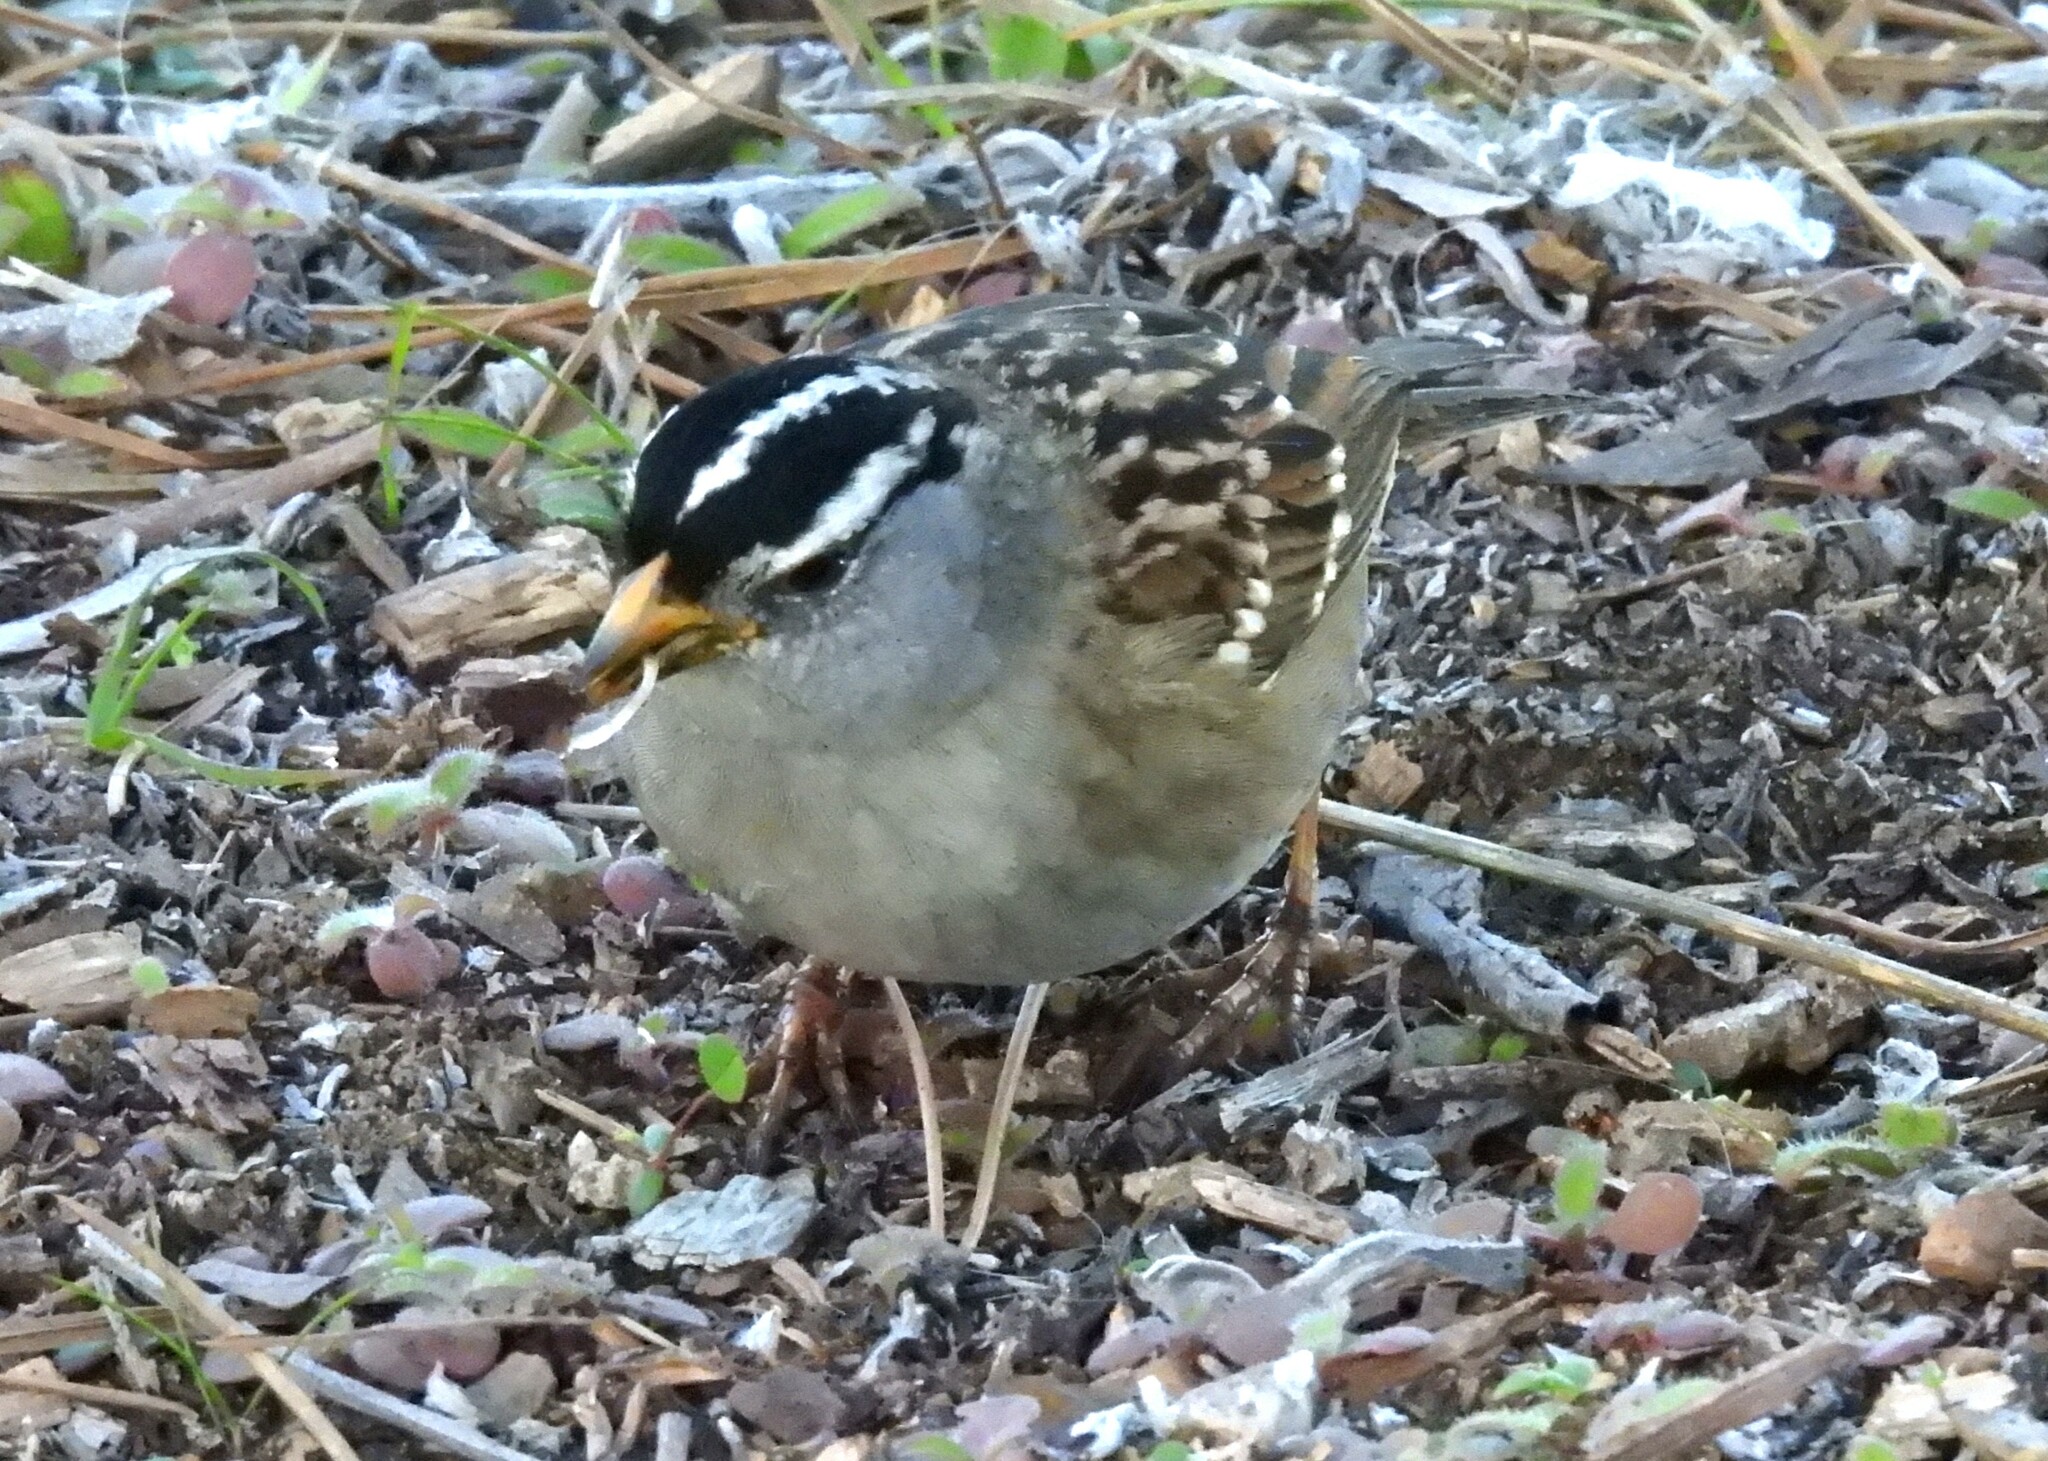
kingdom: Animalia
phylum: Chordata
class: Aves
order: Passeriformes
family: Passerellidae
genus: Zonotrichia
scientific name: Zonotrichia leucophrys
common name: White-crowned sparrow
